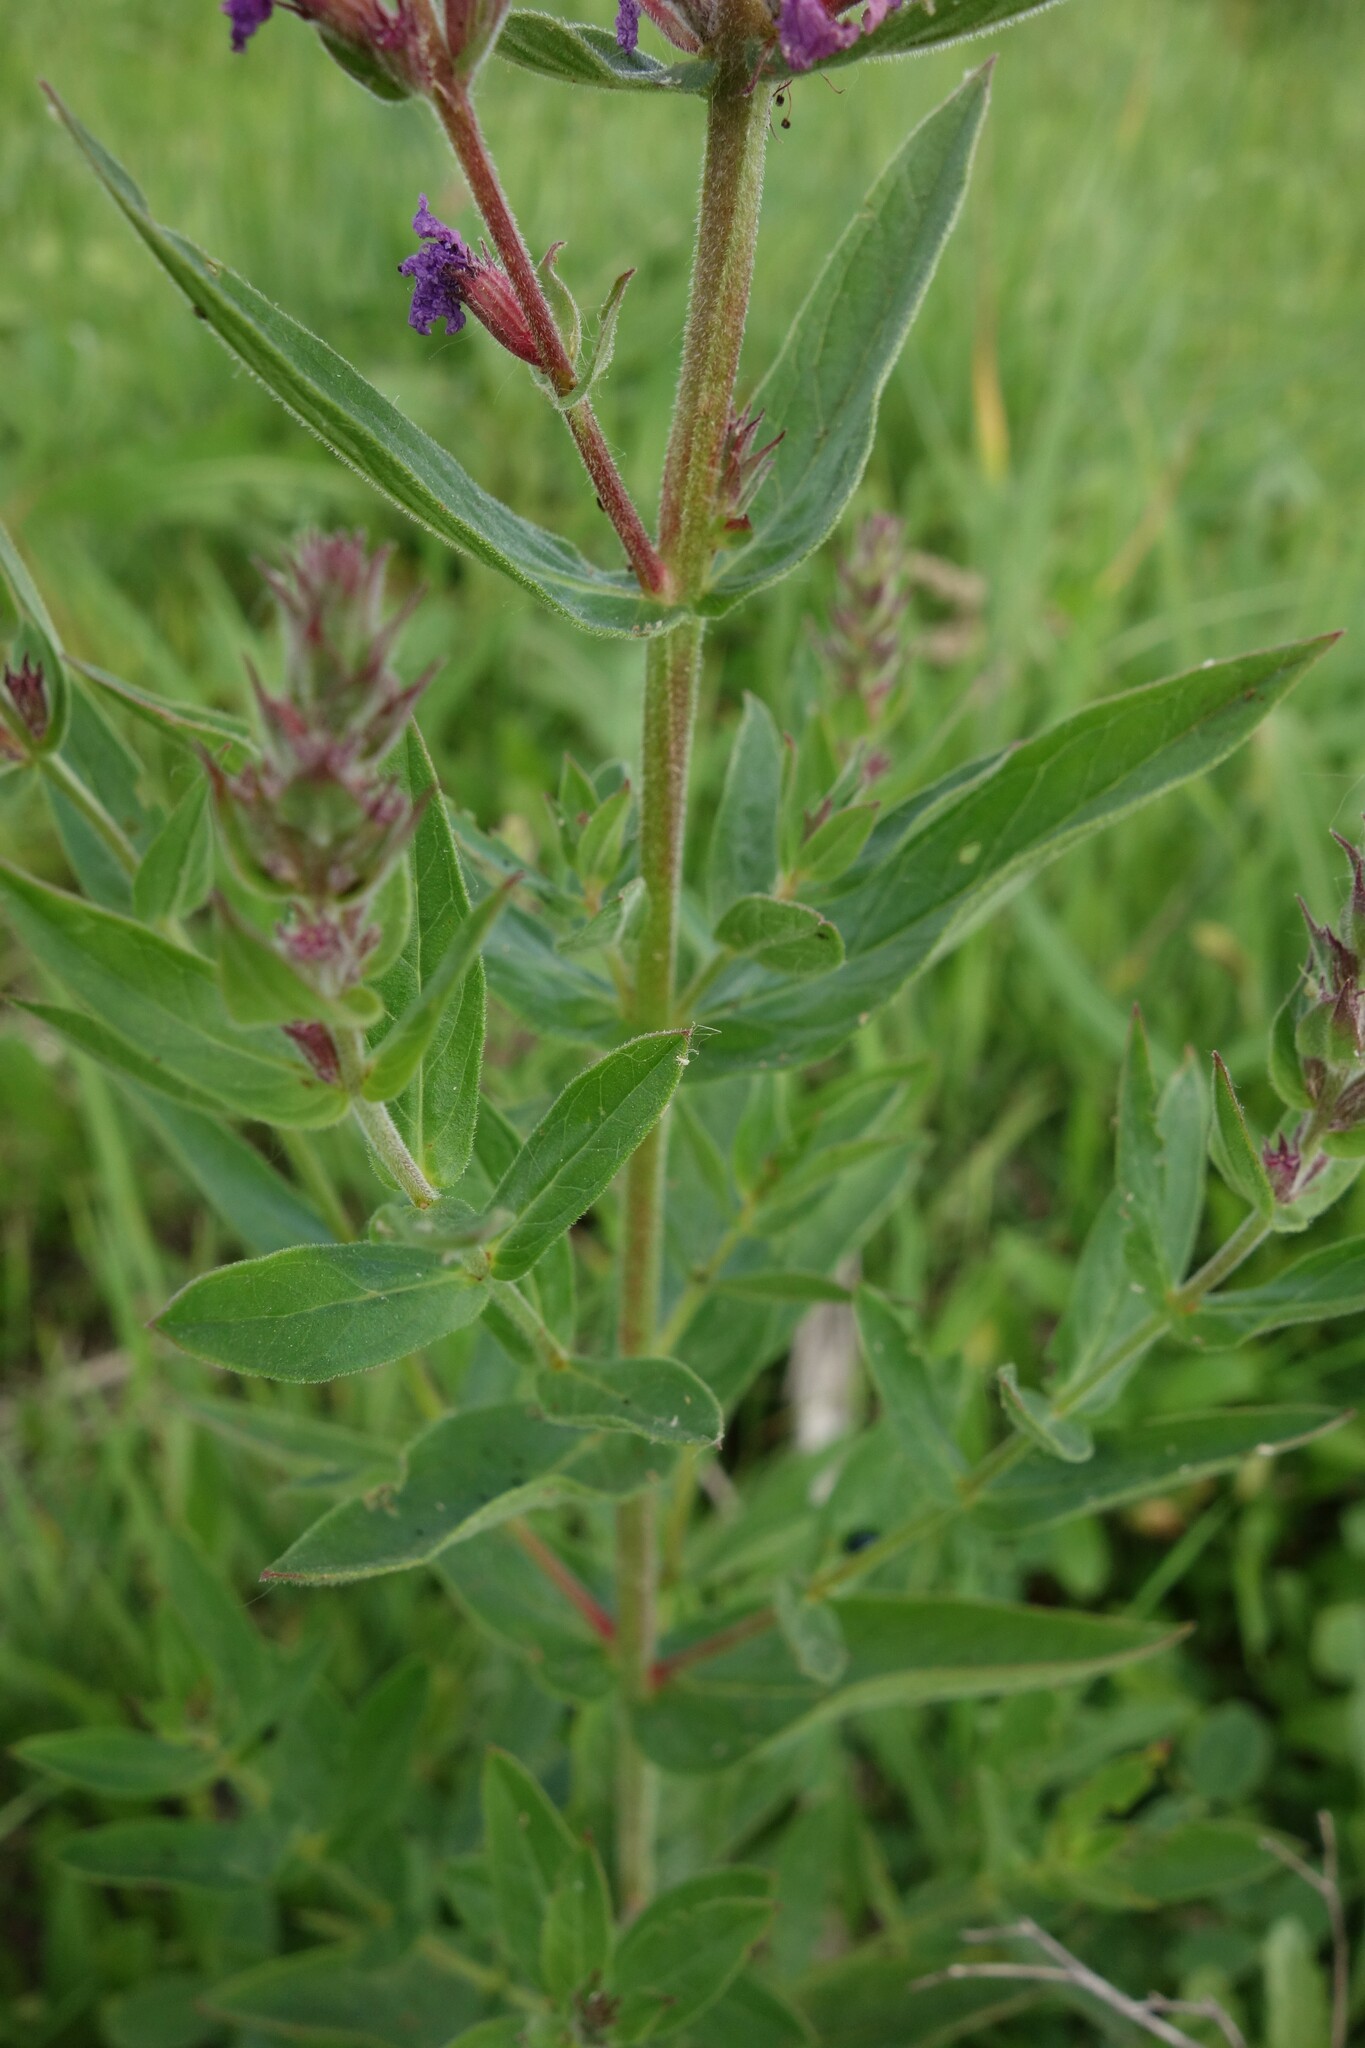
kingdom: Plantae
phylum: Tracheophyta
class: Magnoliopsida
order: Myrtales
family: Lythraceae
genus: Lythrum
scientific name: Lythrum salicaria
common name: Purple loosestrife
